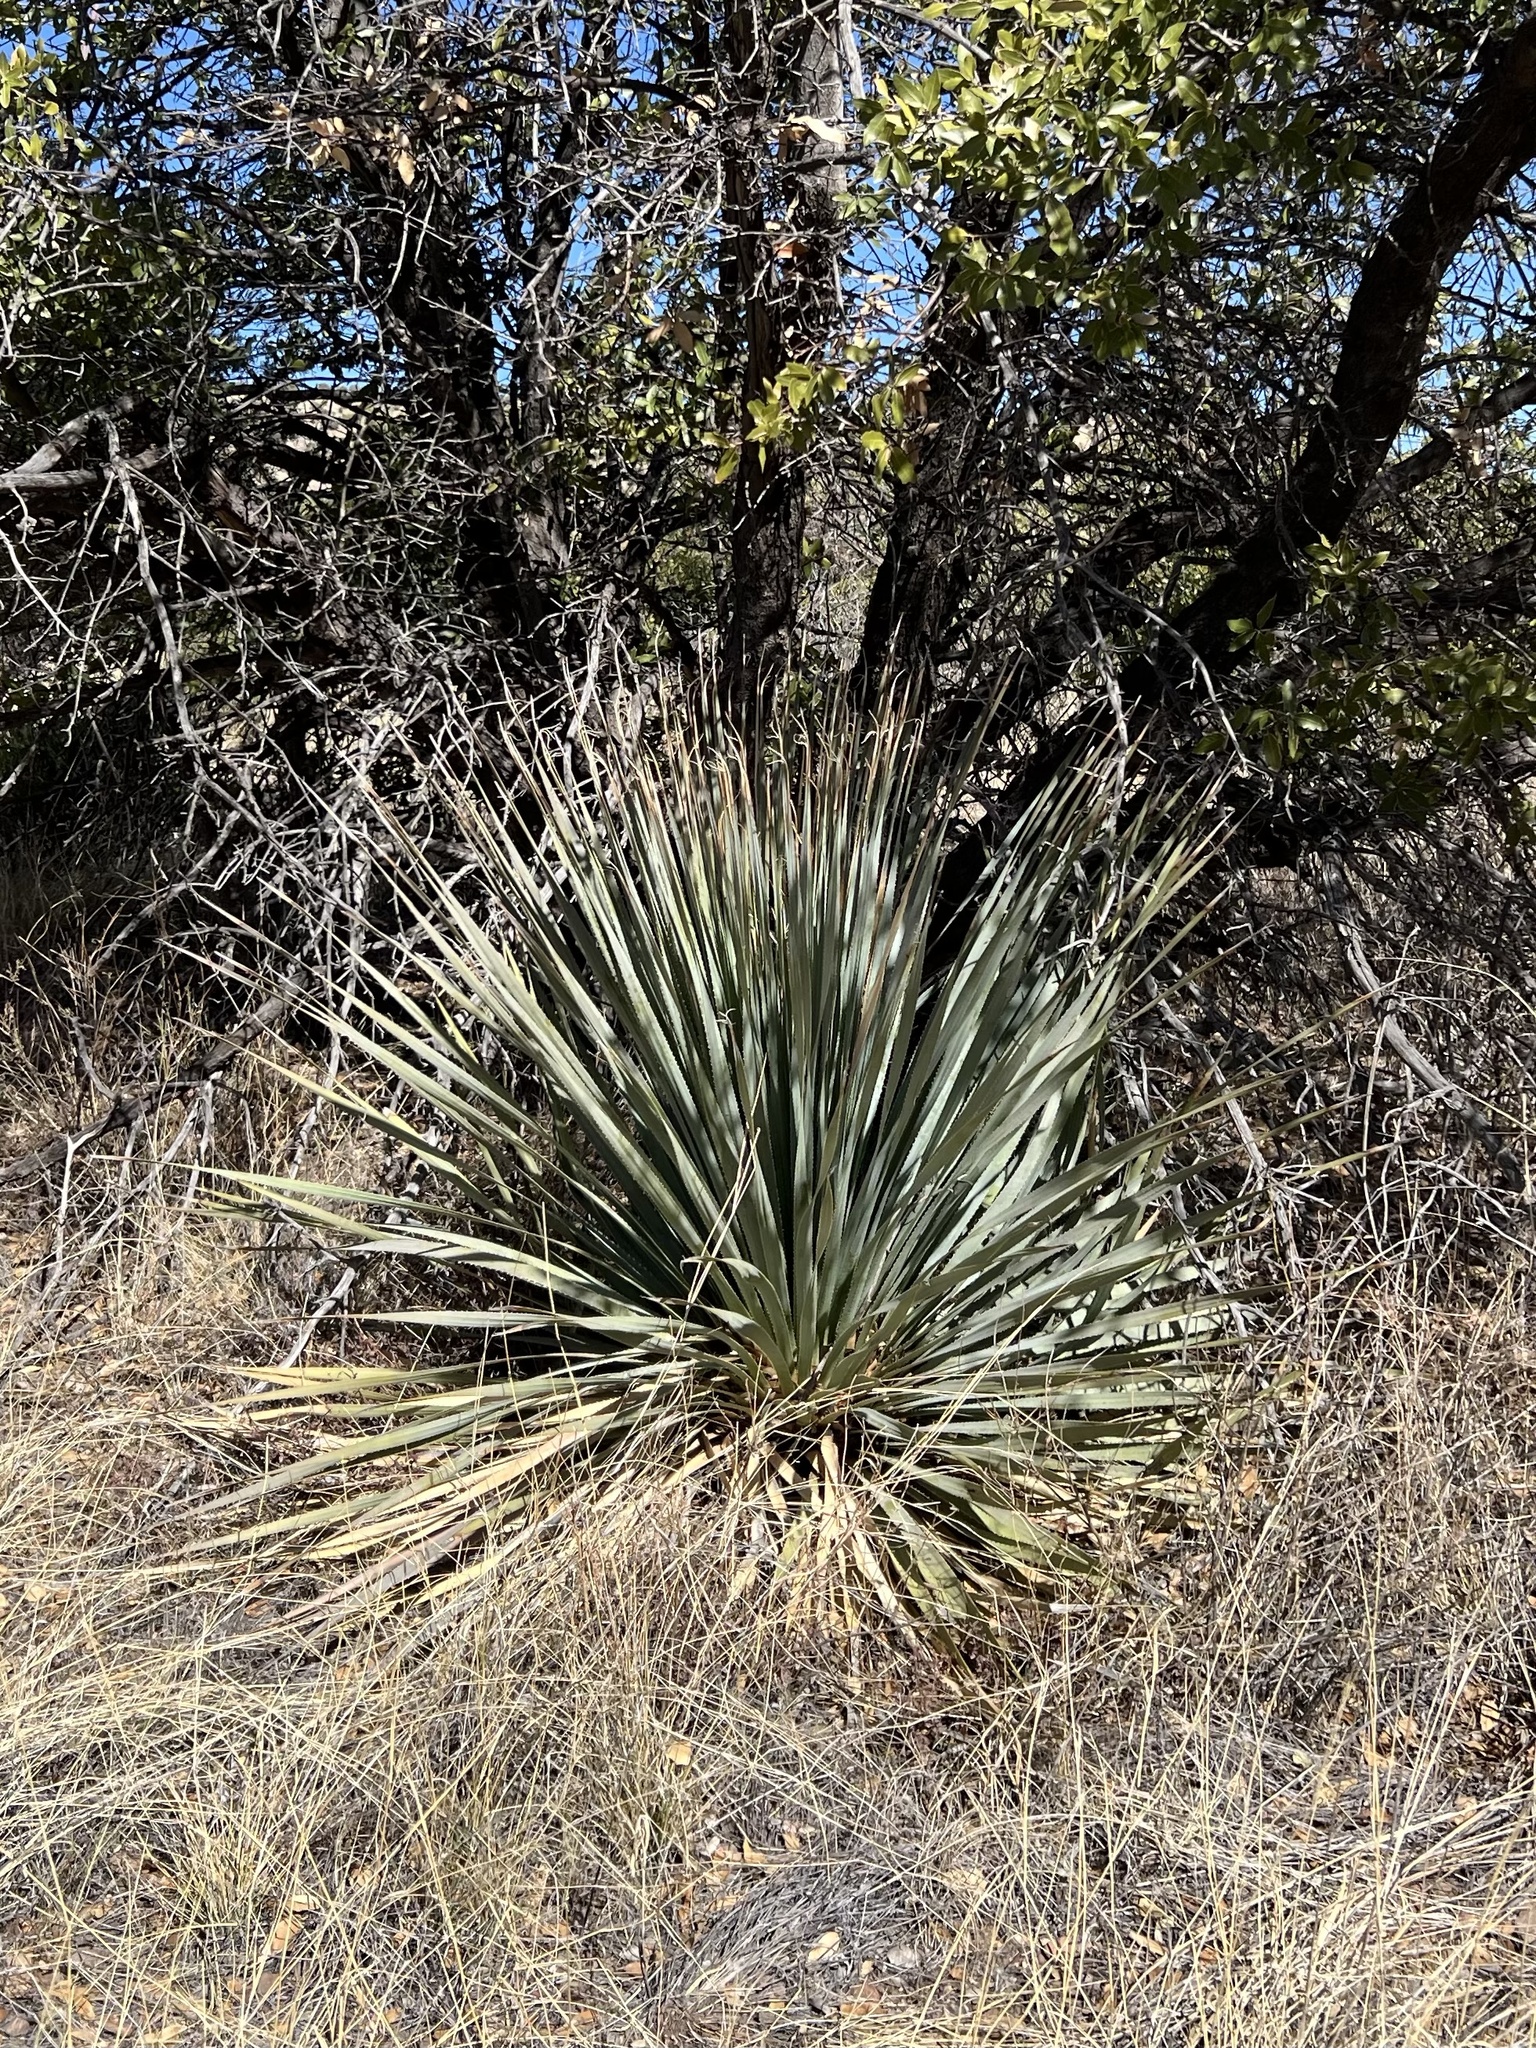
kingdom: Plantae
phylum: Tracheophyta
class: Liliopsida
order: Asparagales
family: Asparagaceae
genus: Dasylirion
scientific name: Dasylirion wheeleri
